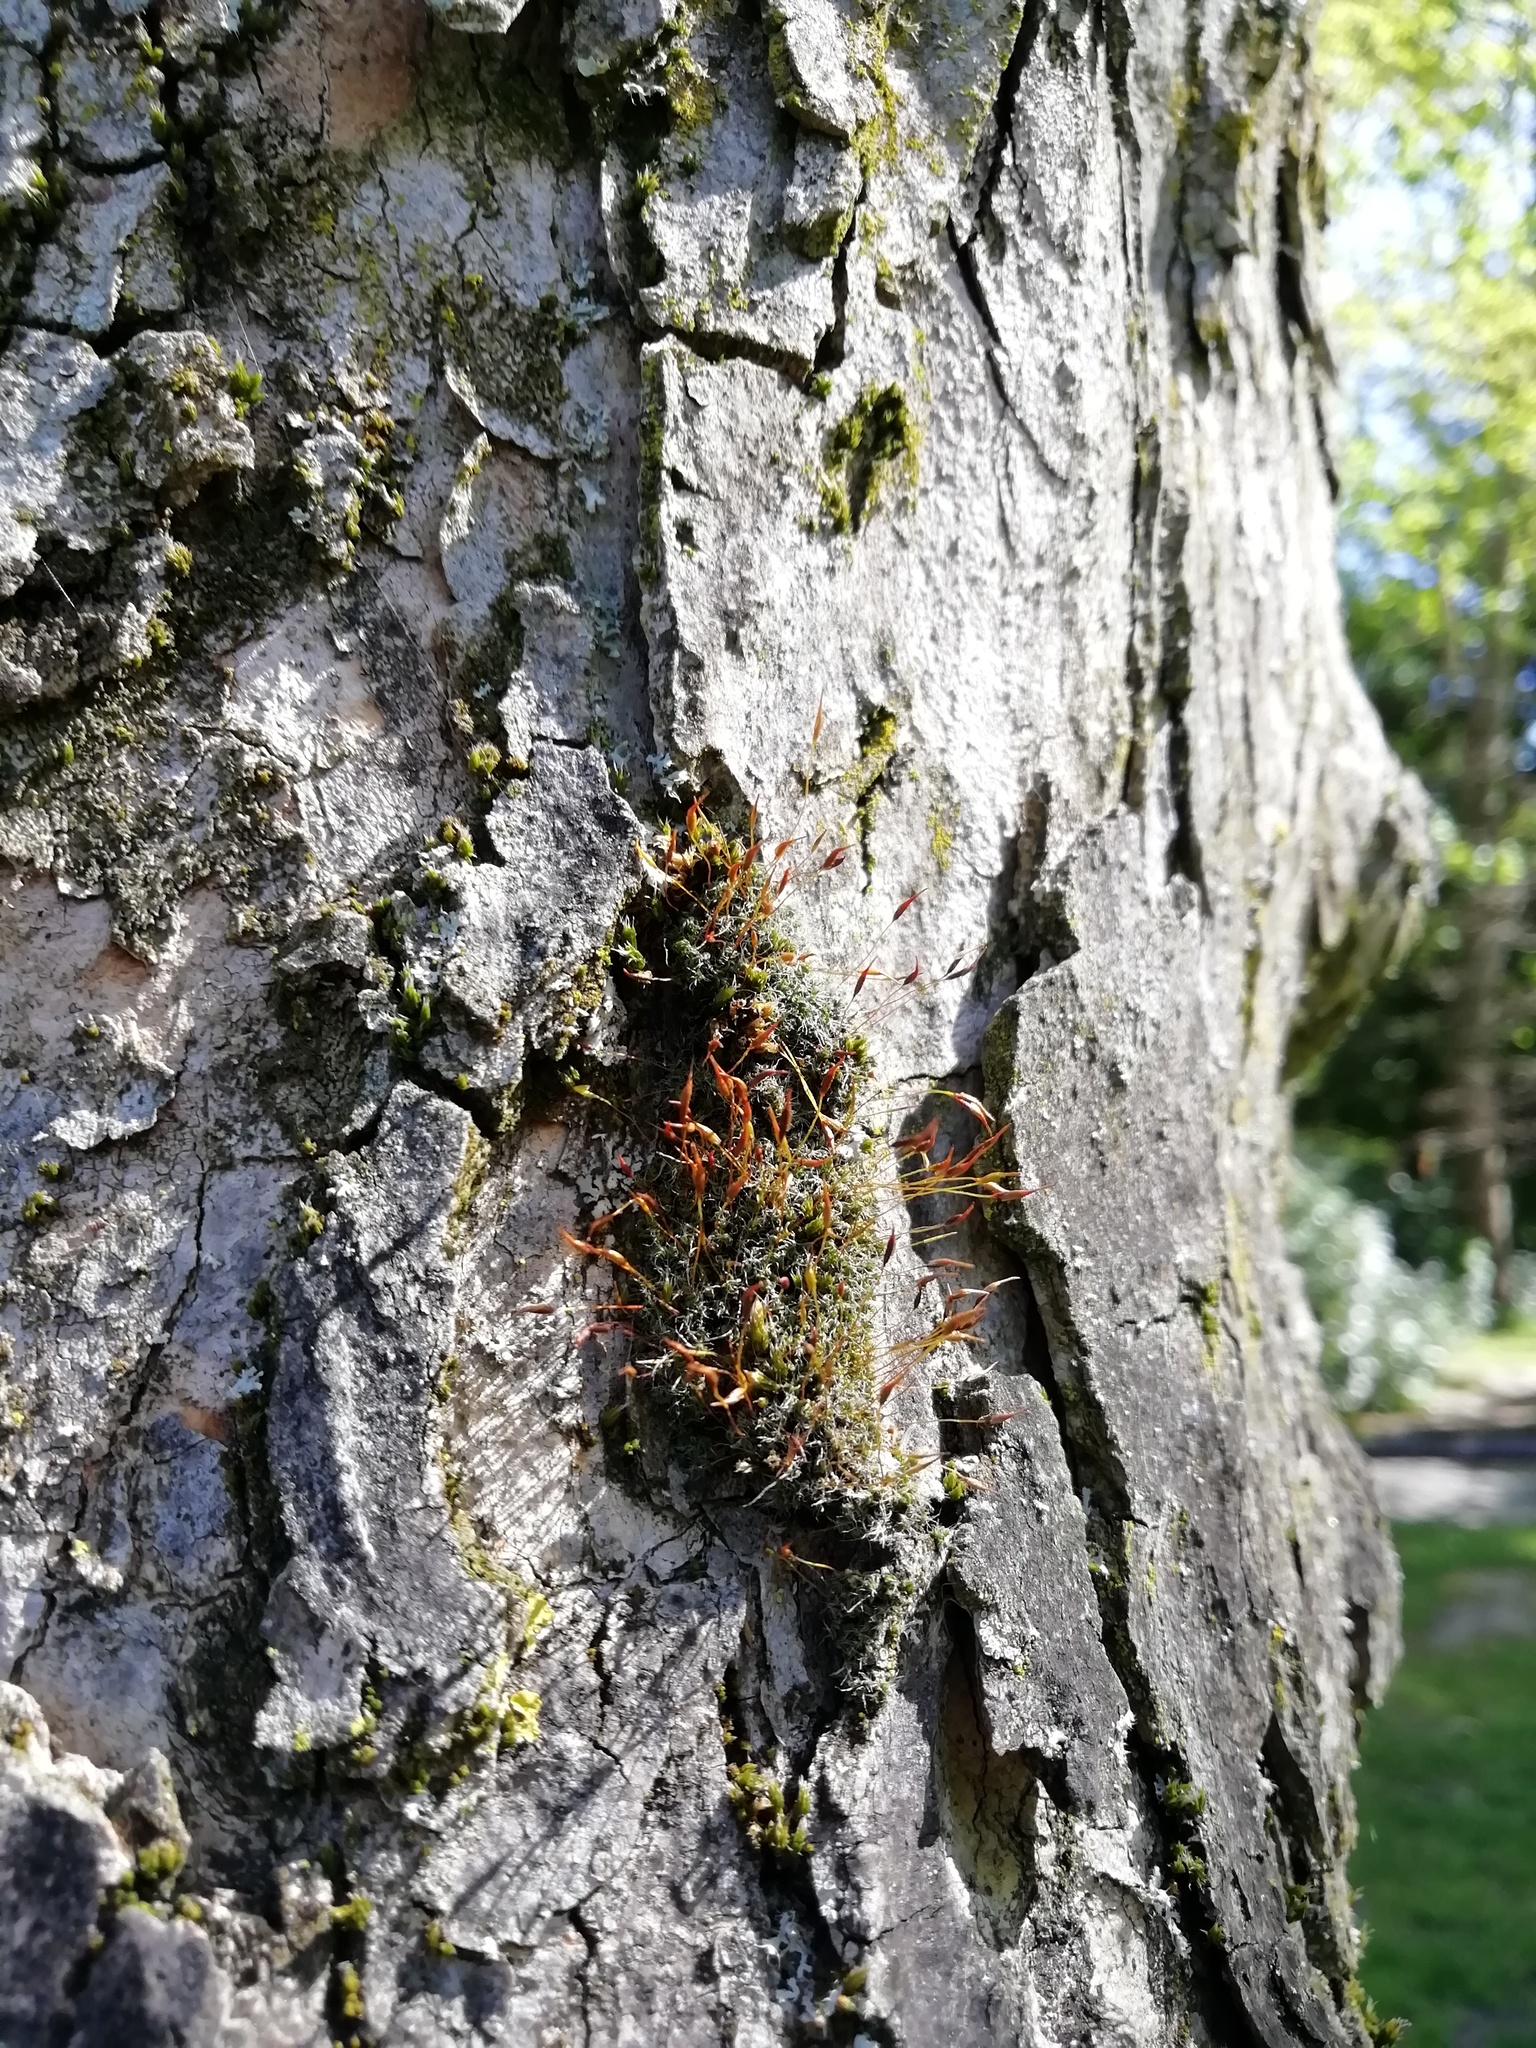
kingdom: Plantae
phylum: Bryophyta
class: Bryopsida
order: Pottiales
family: Pottiaceae
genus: Tortula
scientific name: Tortula muralis
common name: Wall screw-moss
